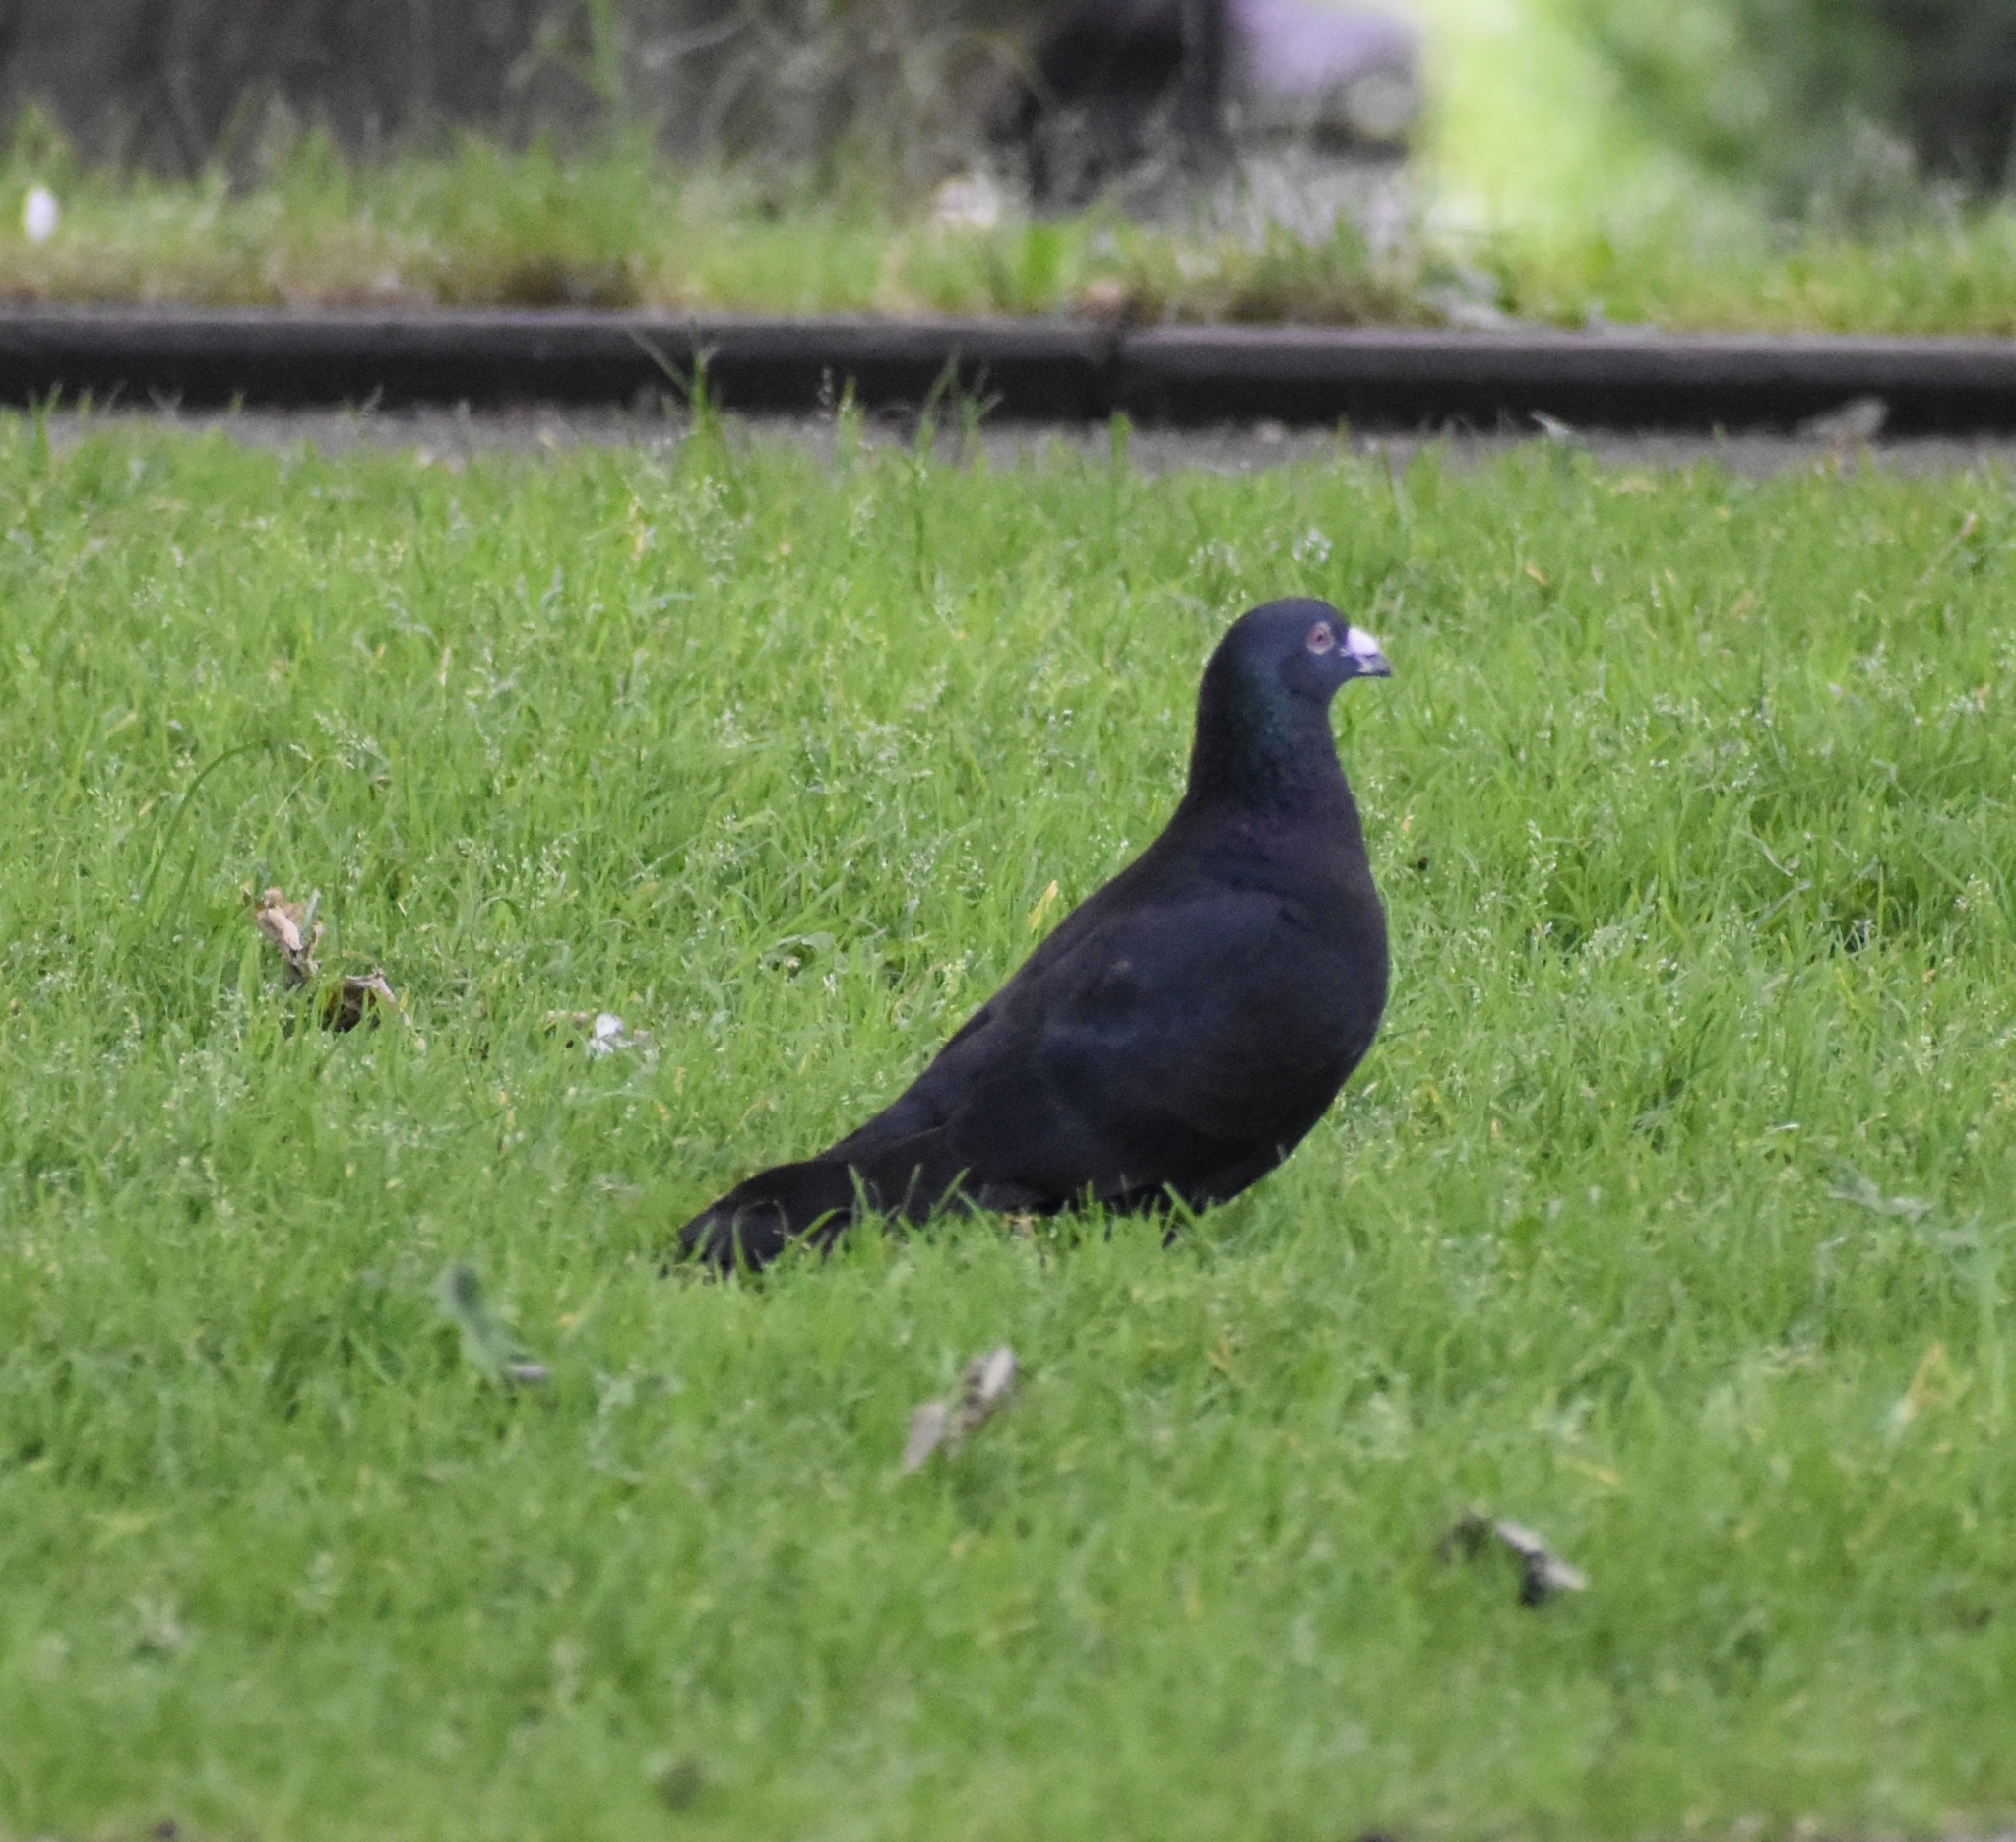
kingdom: Animalia
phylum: Chordata
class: Aves
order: Columbiformes
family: Columbidae
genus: Columba
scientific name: Columba livia
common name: Rock pigeon
